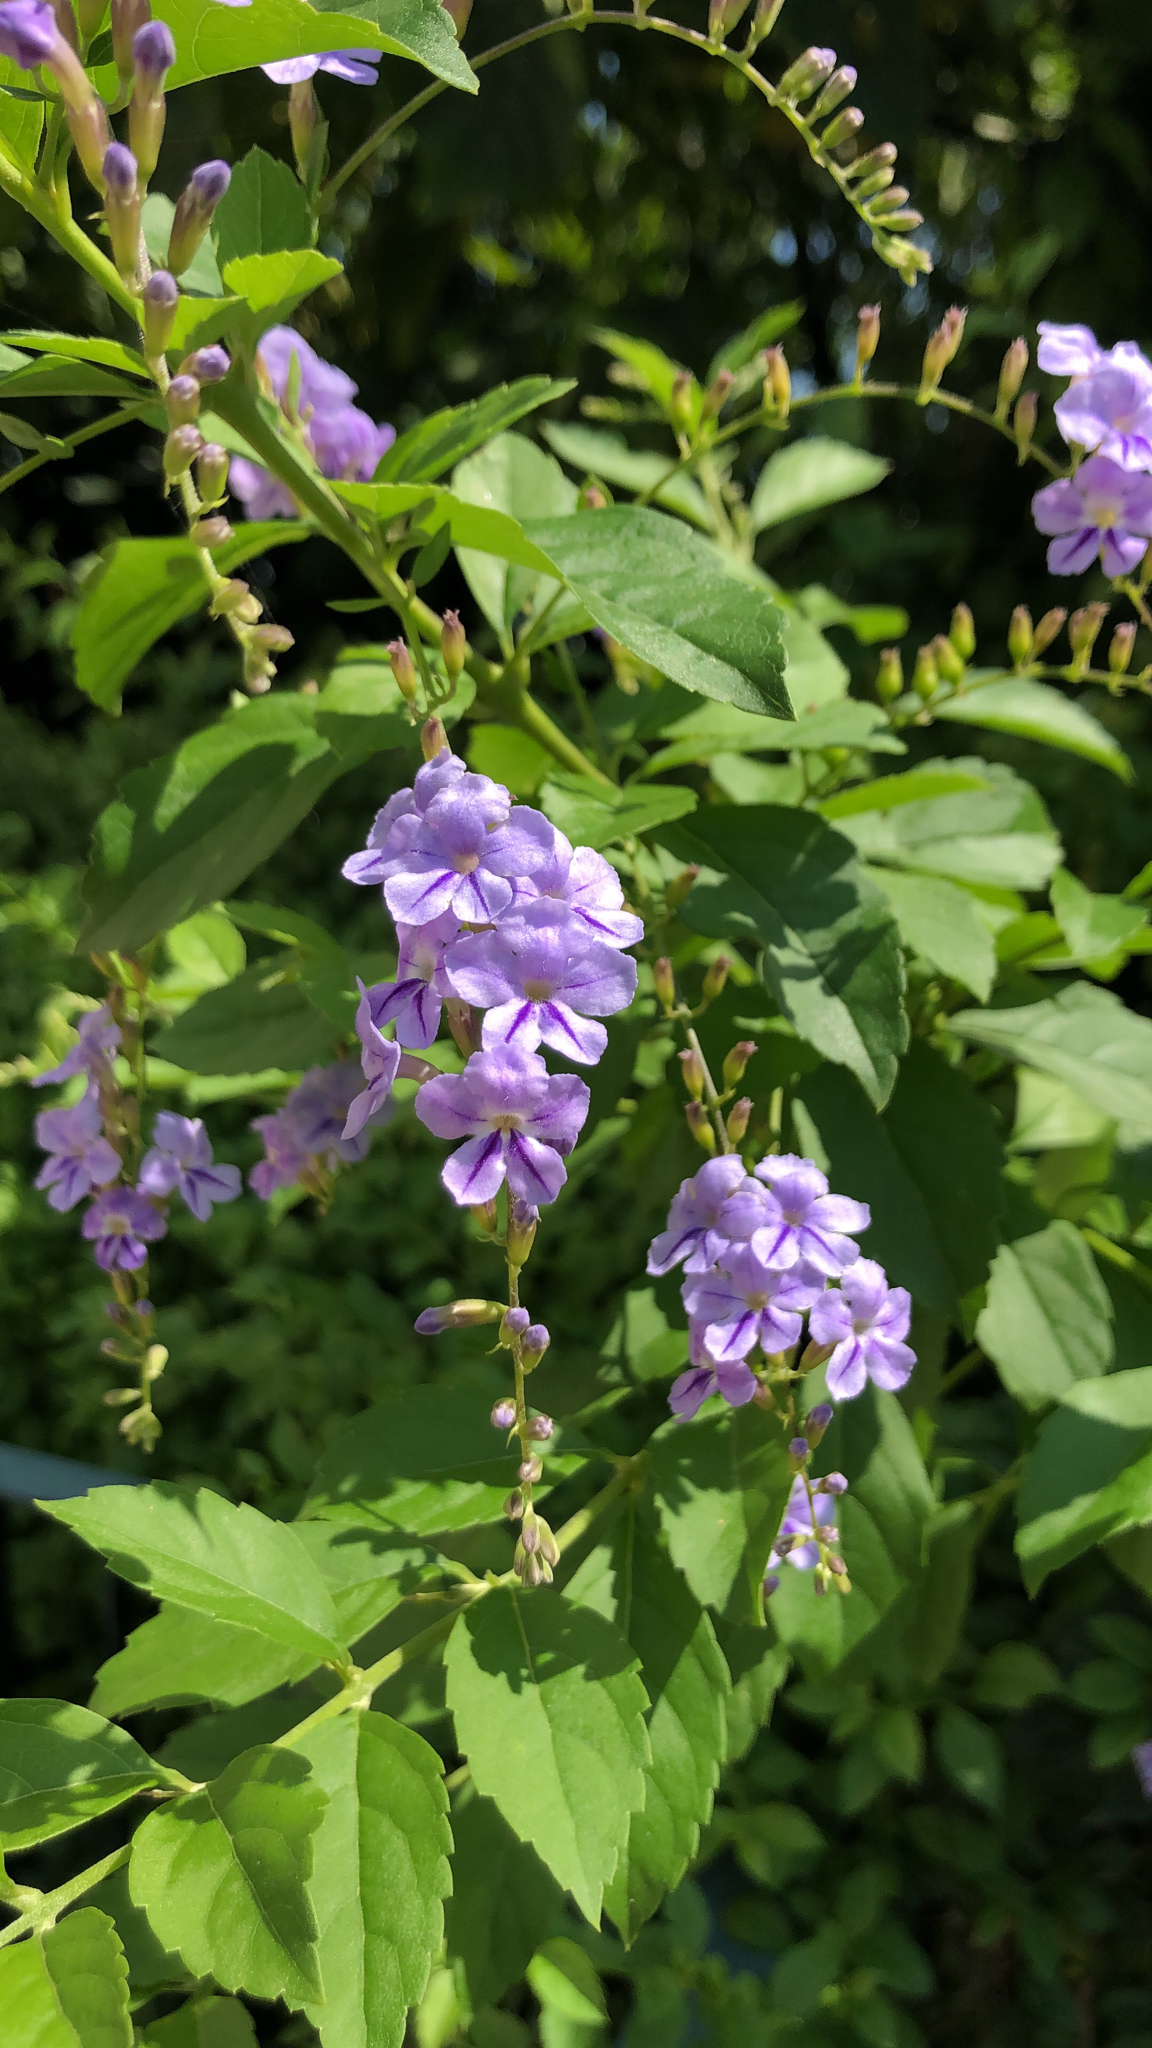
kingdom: Plantae
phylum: Tracheophyta
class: Magnoliopsida
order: Lamiales
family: Verbenaceae
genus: Duranta
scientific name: Duranta erecta
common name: Golden dewdrops
